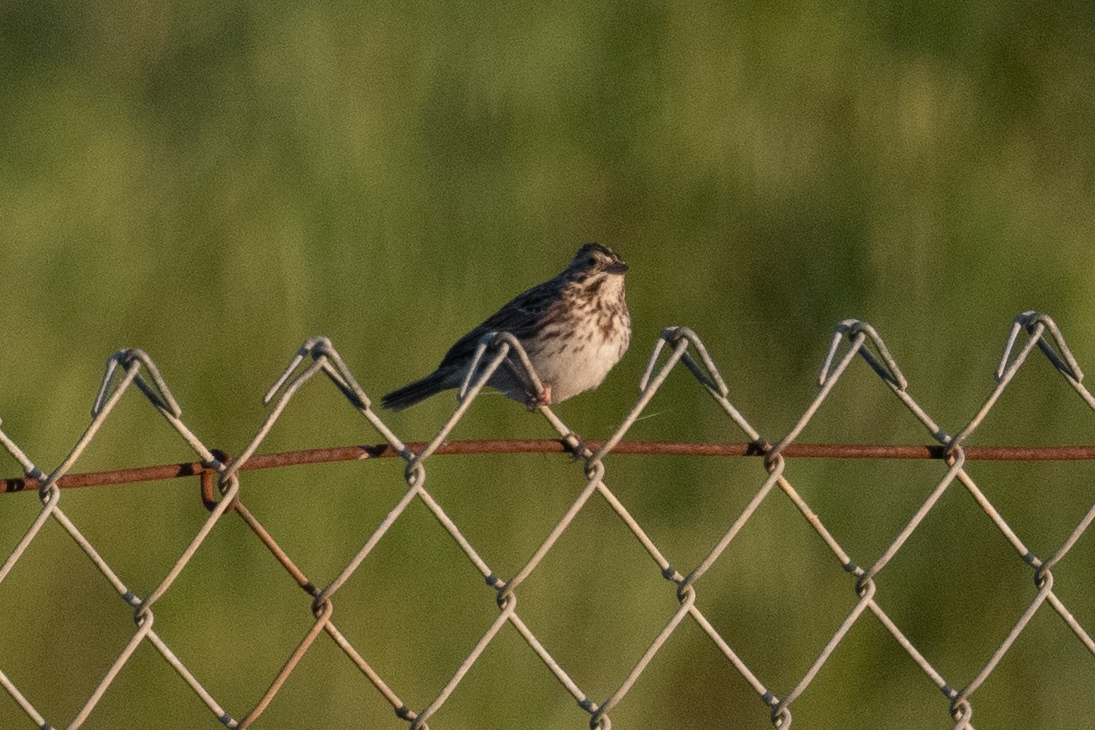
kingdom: Animalia
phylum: Chordata
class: Aves
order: Passeriformes
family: Passerellidae
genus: Passerculus
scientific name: Passerculus sandwichensis
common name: Savannah sparrow
